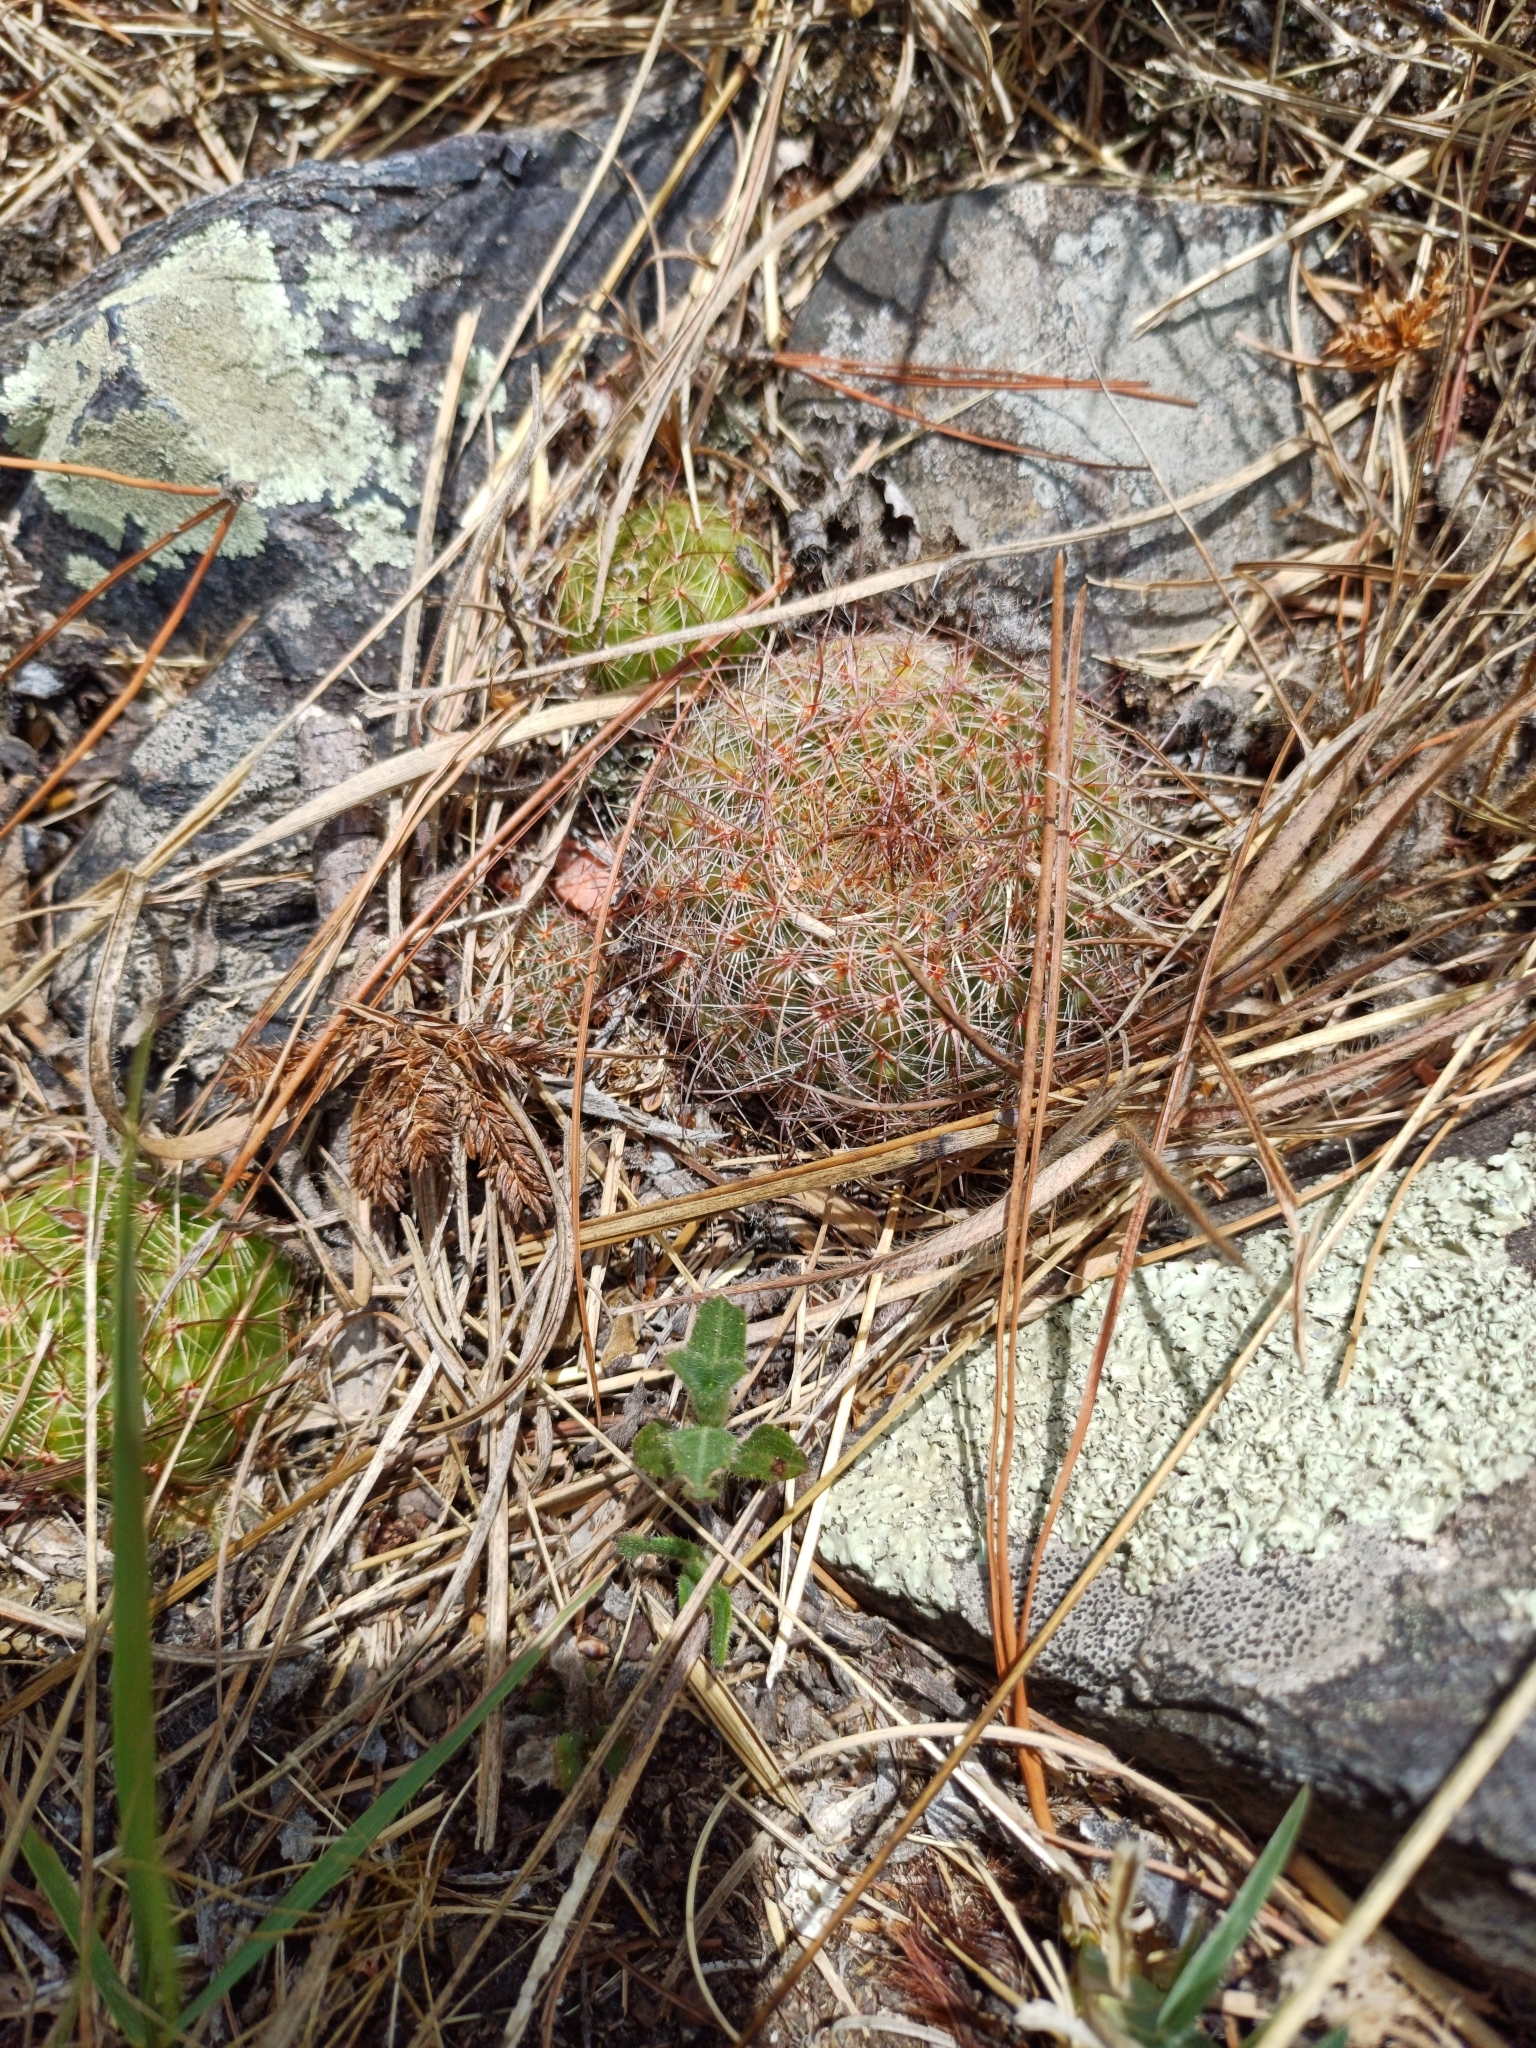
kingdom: Plantae
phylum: Tracheophyta
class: Magnoliopsida
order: Caryophyllales
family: Cactaceae
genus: Parodia
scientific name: Parodia concinna
